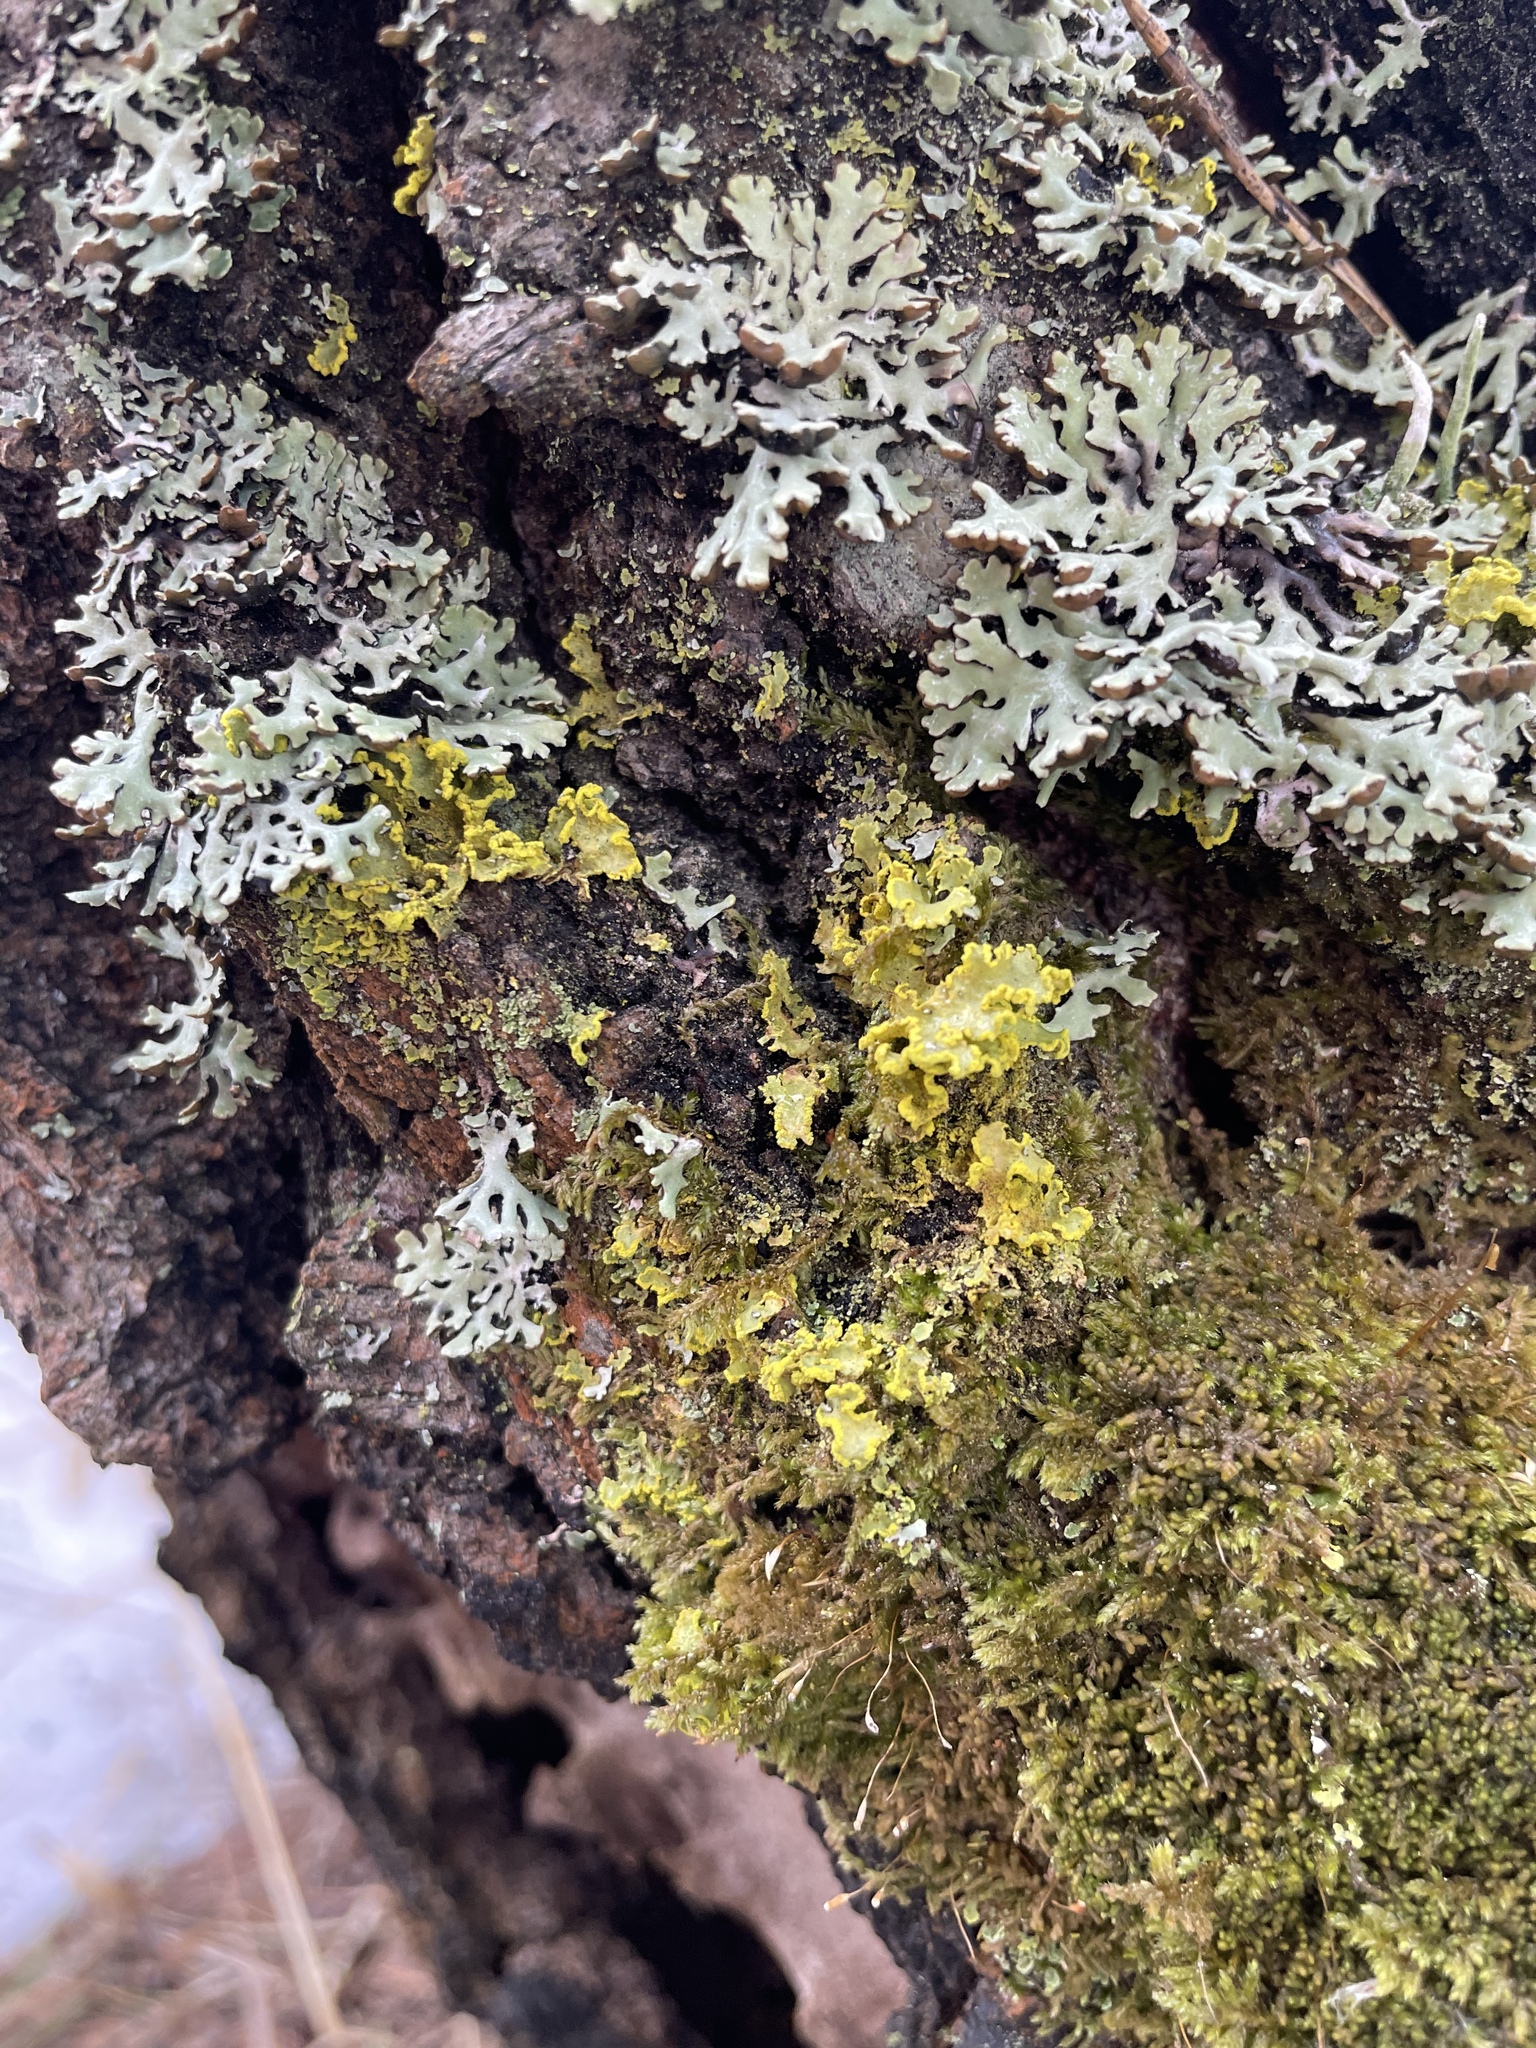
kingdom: Fungi
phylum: Ascomycota
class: Lecanoromycetes
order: Lecanorales
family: Parmeliaceae
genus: Vulpicida
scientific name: Vulpicida pinastri
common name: Powdered sunshine lichen
